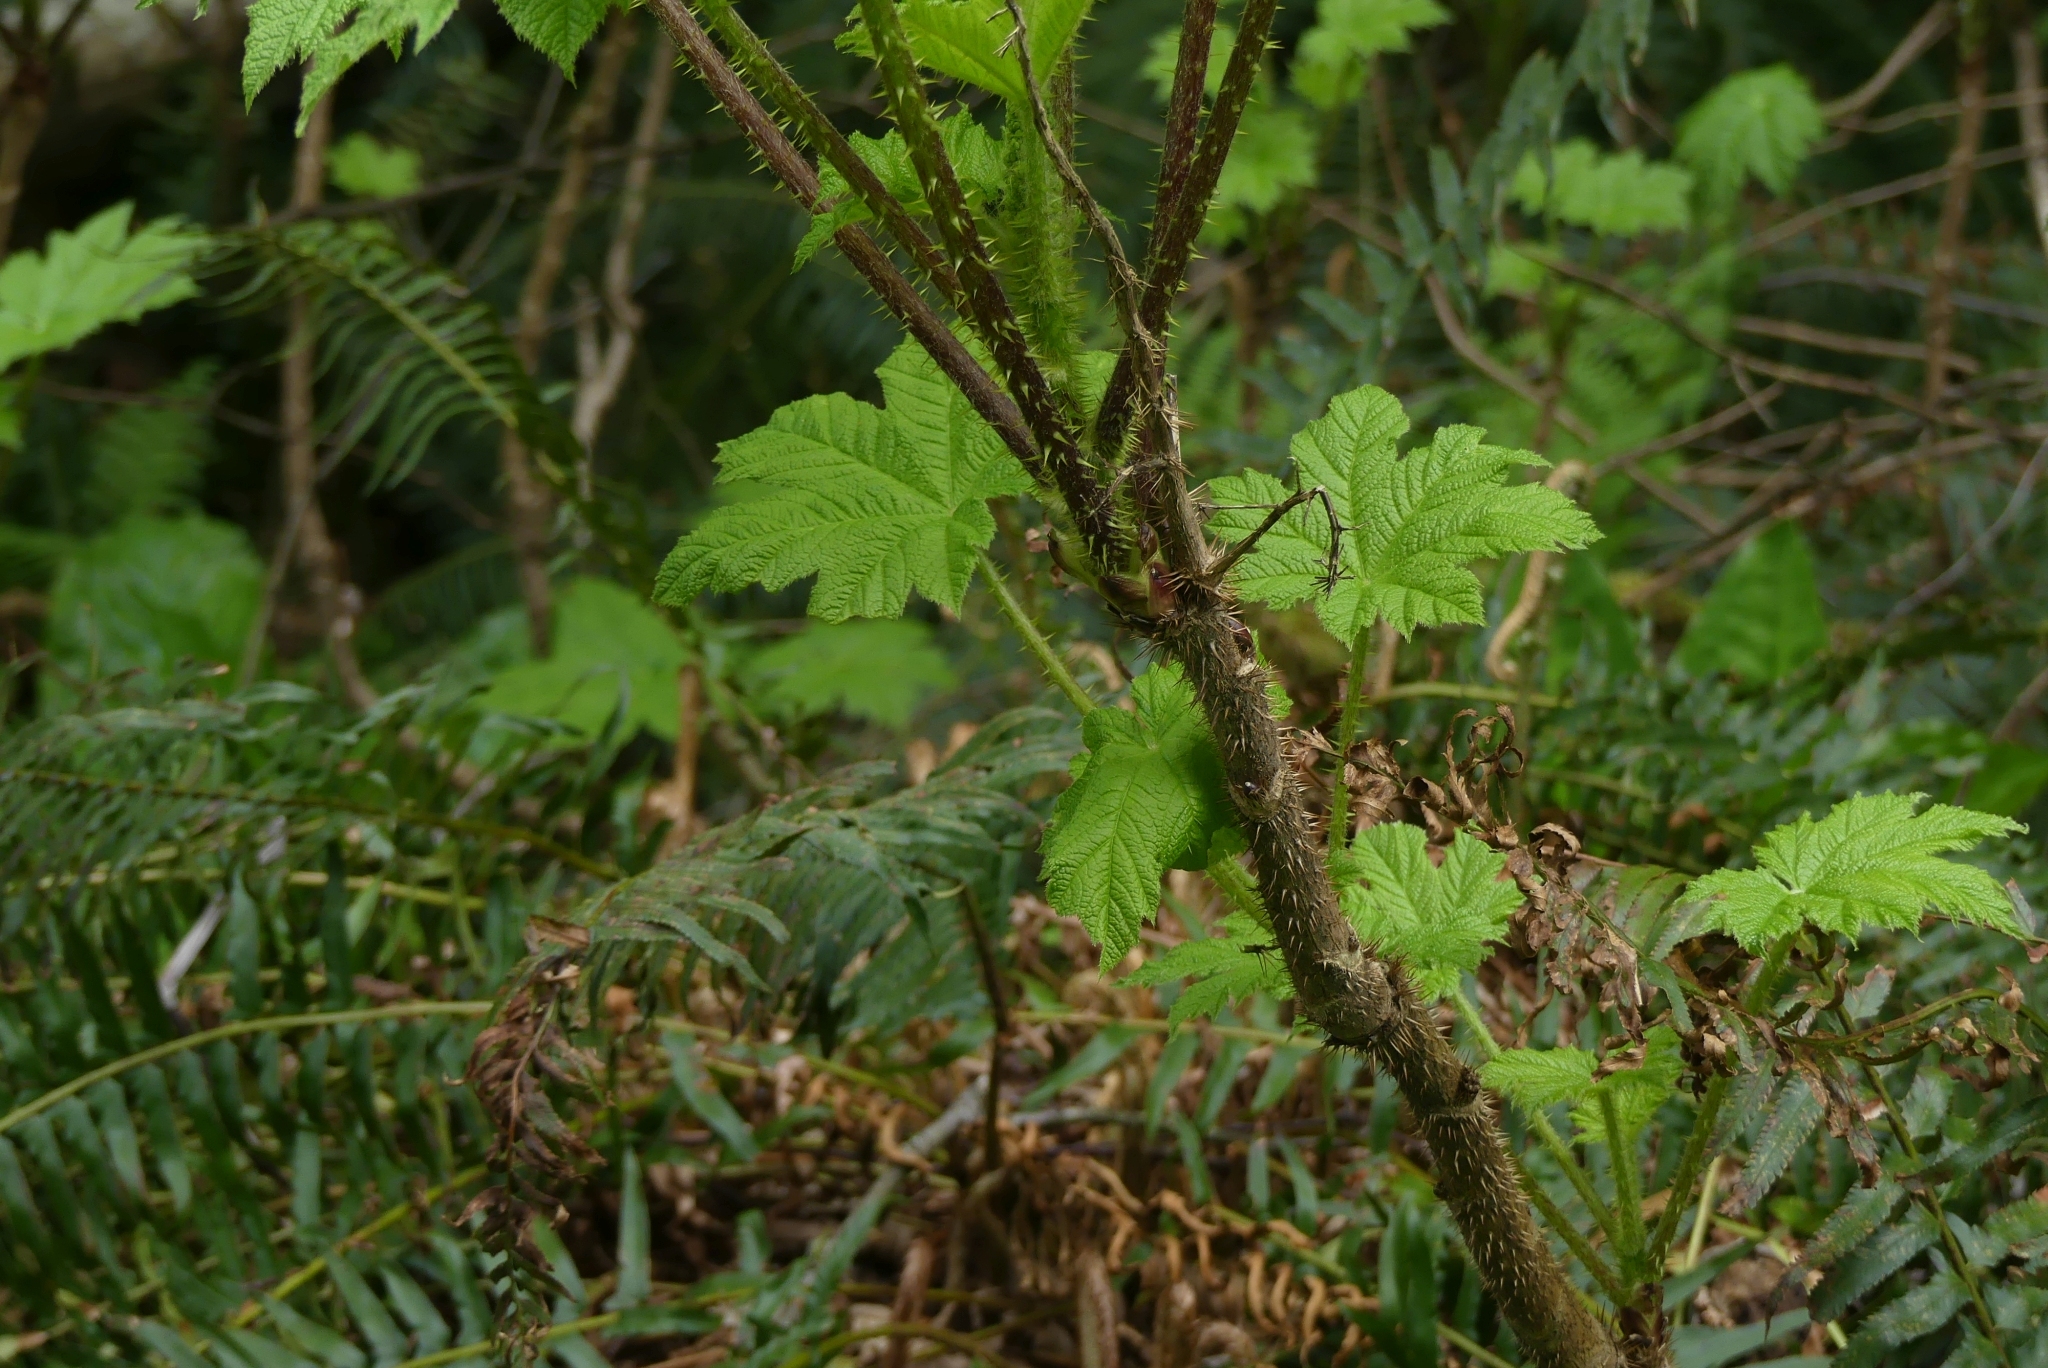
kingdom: Plantae
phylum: Tracheophyta
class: Magnoliopsida
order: Apiales
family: Araliaceae
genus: Oplopanax
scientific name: Oplopanax horridus
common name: Devil's walking-stick
